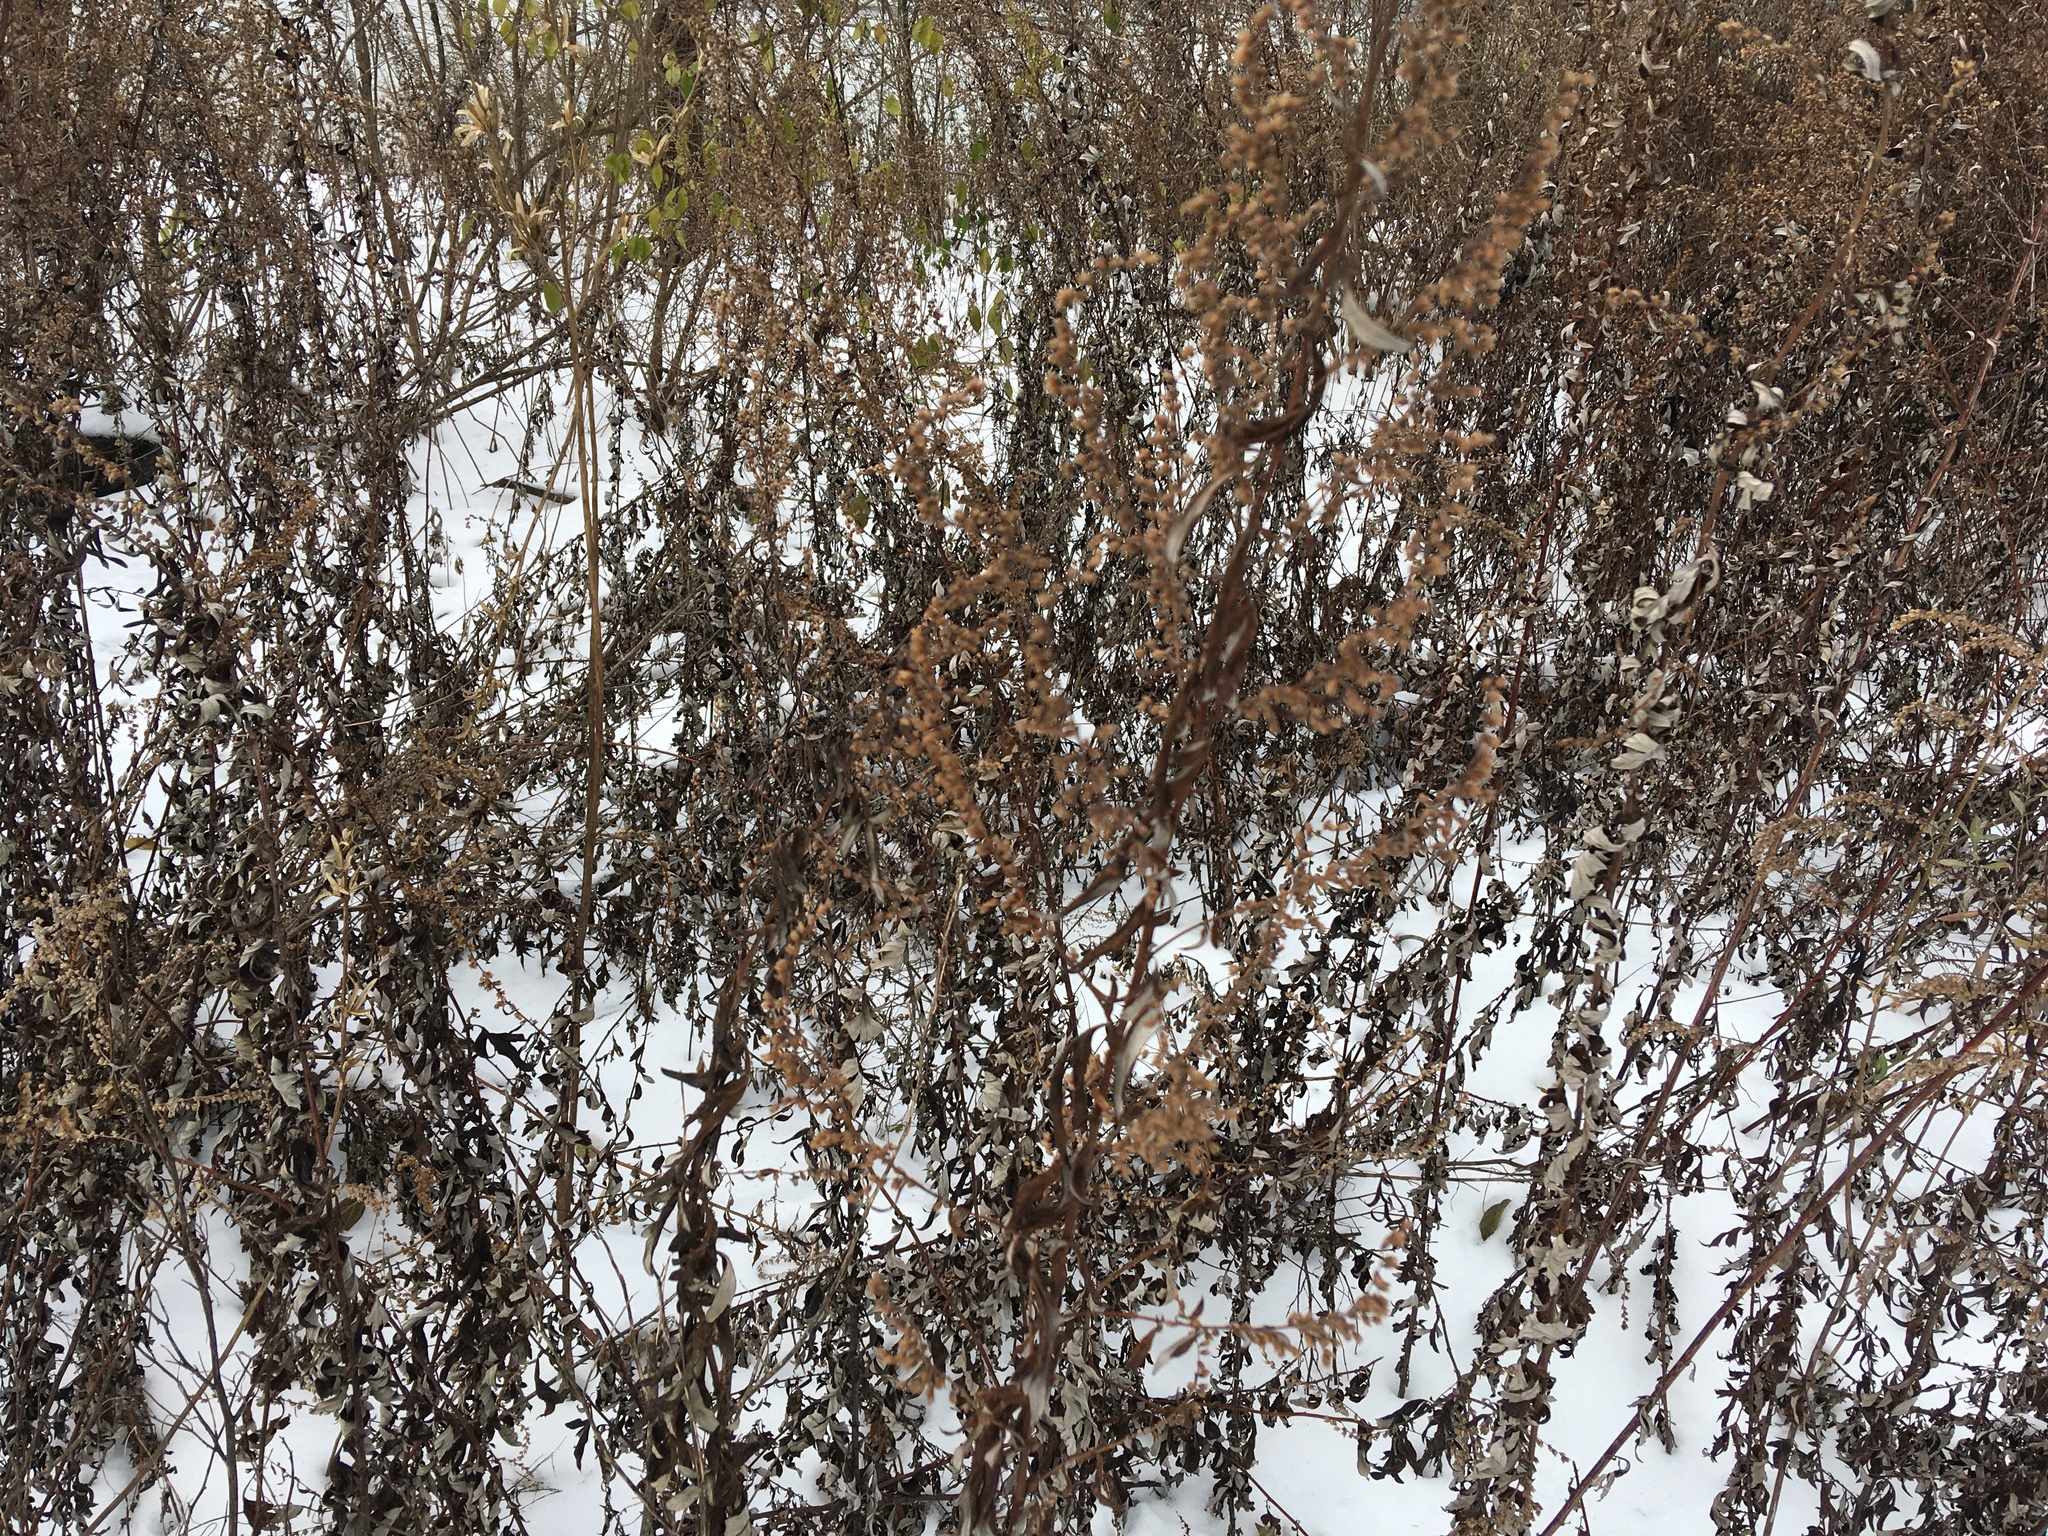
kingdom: Plantae
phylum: Tracheophyta
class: Magnoliopsida
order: Asterales
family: Asteraceae
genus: Artemisia
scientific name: Artemisia vulgaris
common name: Mugwort
